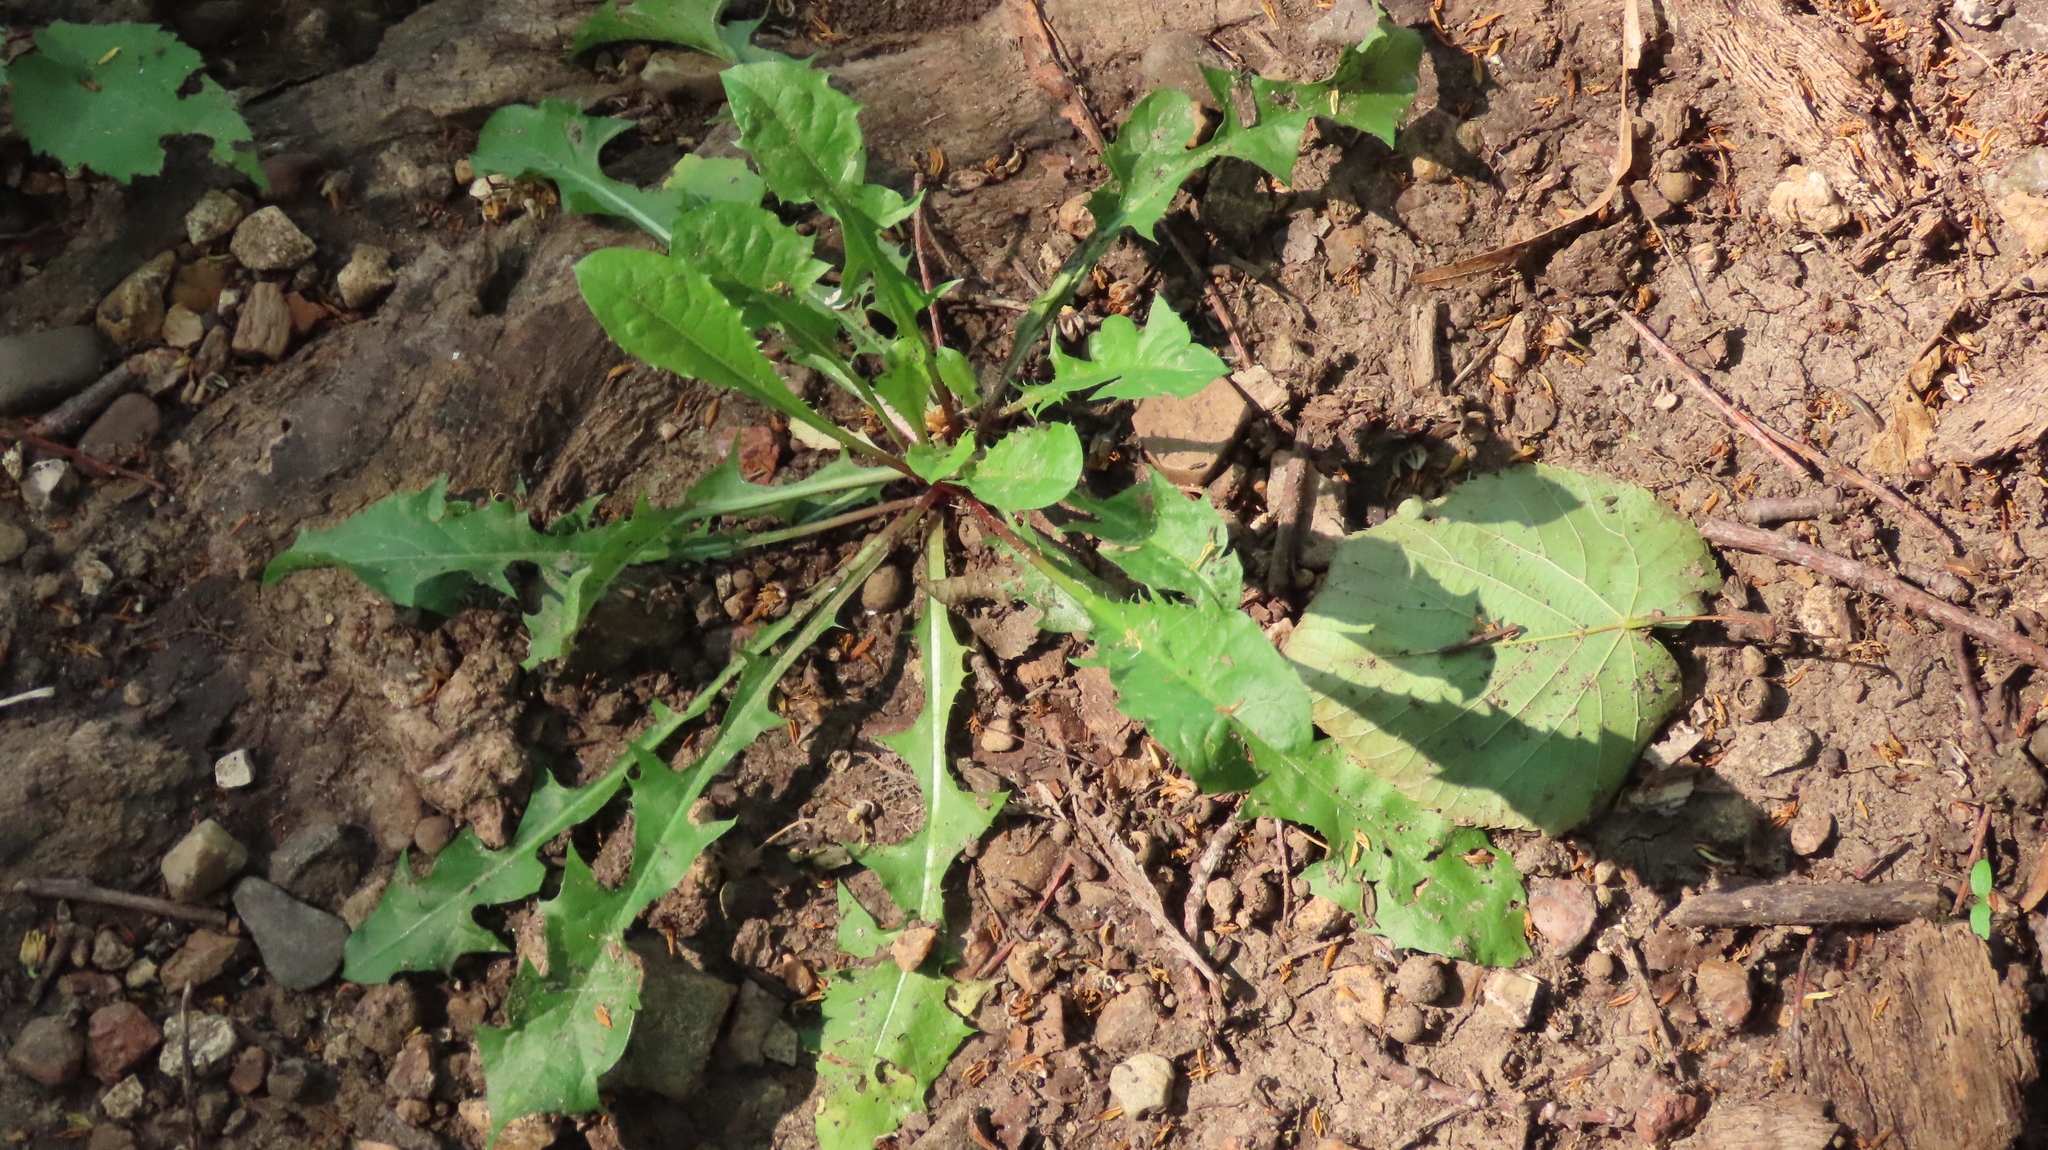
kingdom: Plantae
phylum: Tracheophyta
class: Magnoliopsida
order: Asterales
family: Asteraceae
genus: Taraxacum
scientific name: Taraxacum officinale
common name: Common dandelion
